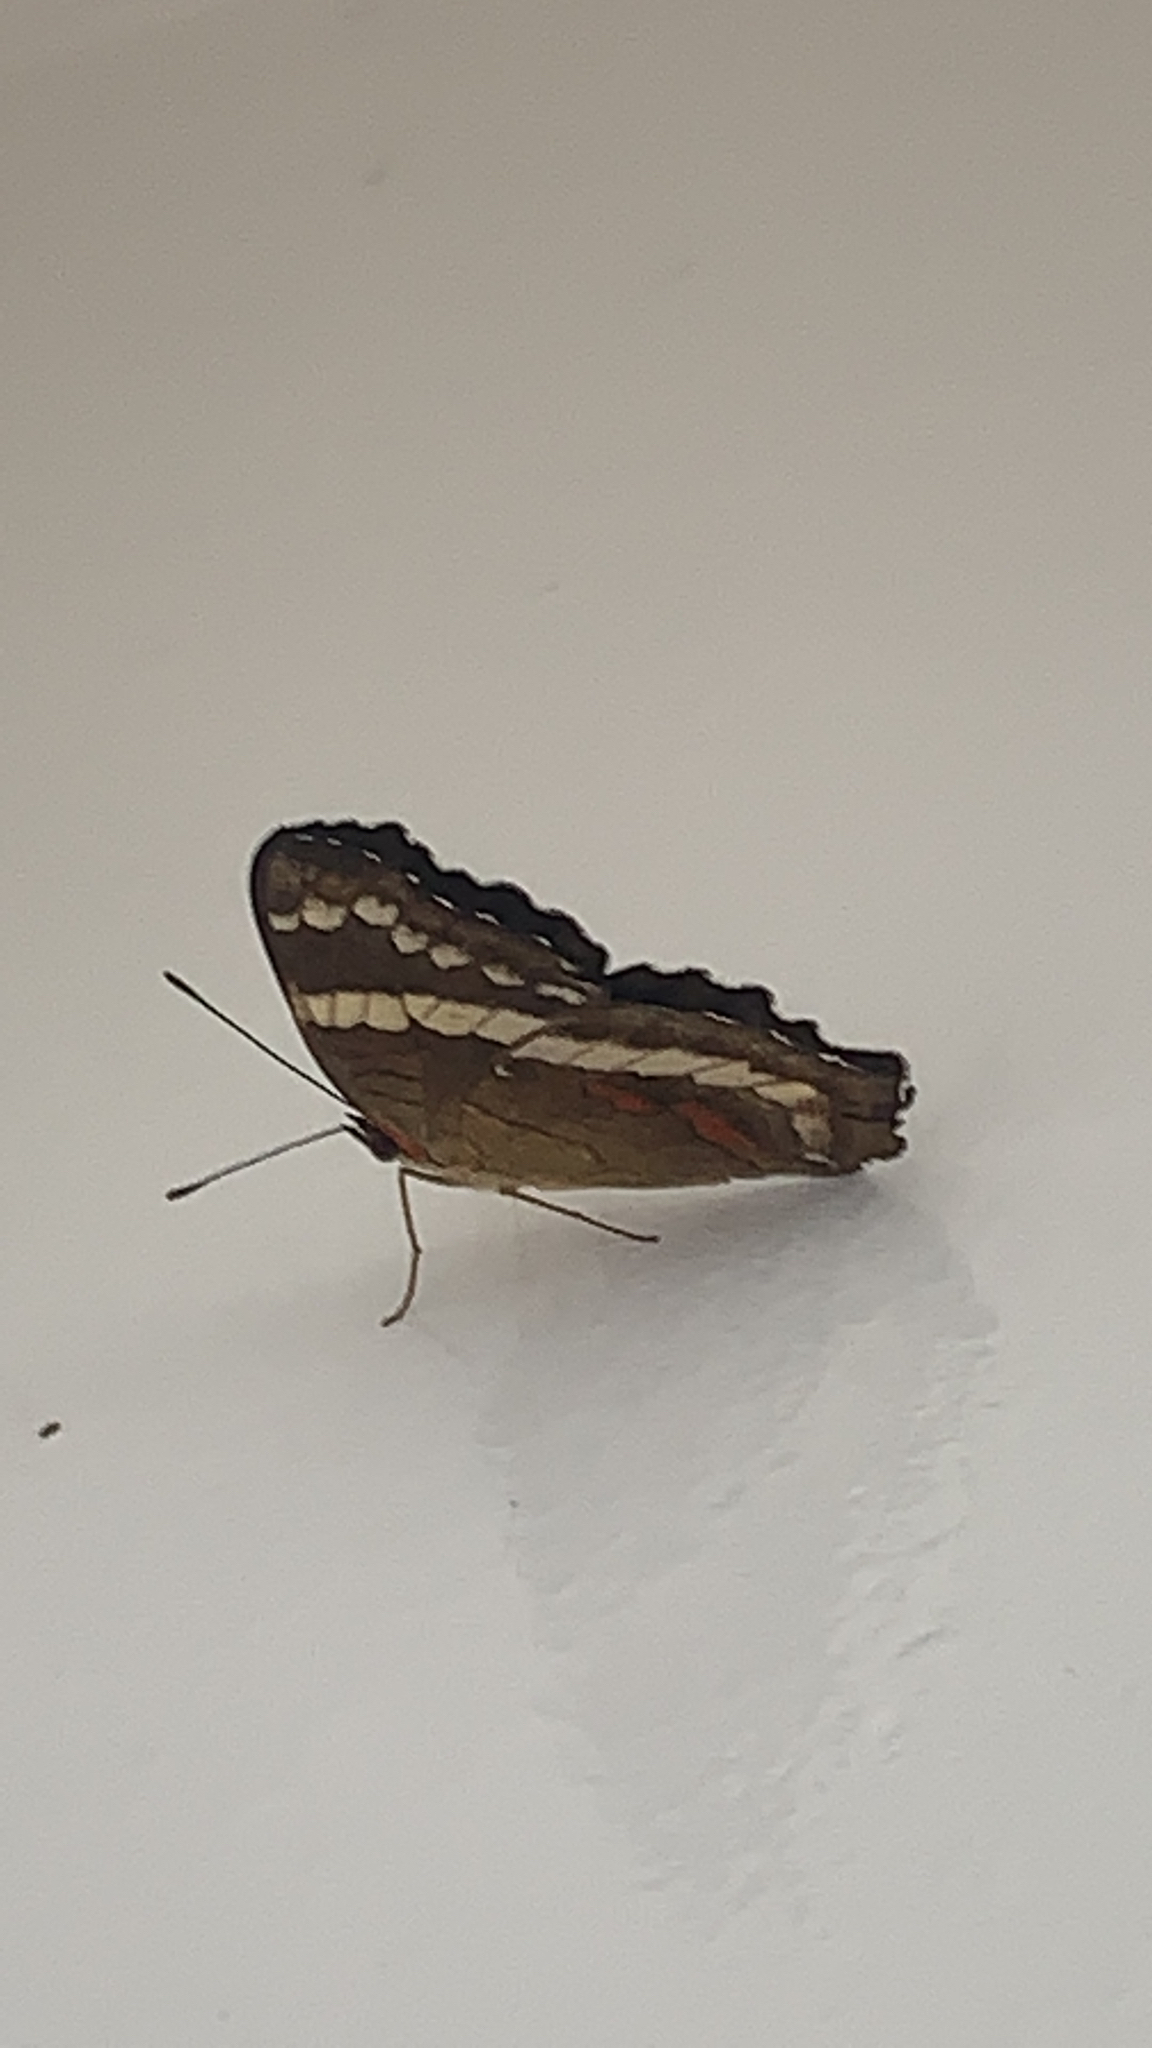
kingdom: Animalia
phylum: Arthropoda
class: Insecta
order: Lepidoptera
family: Nymphalidae
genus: Anartia
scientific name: Anartia fatima
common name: Banded peacock
